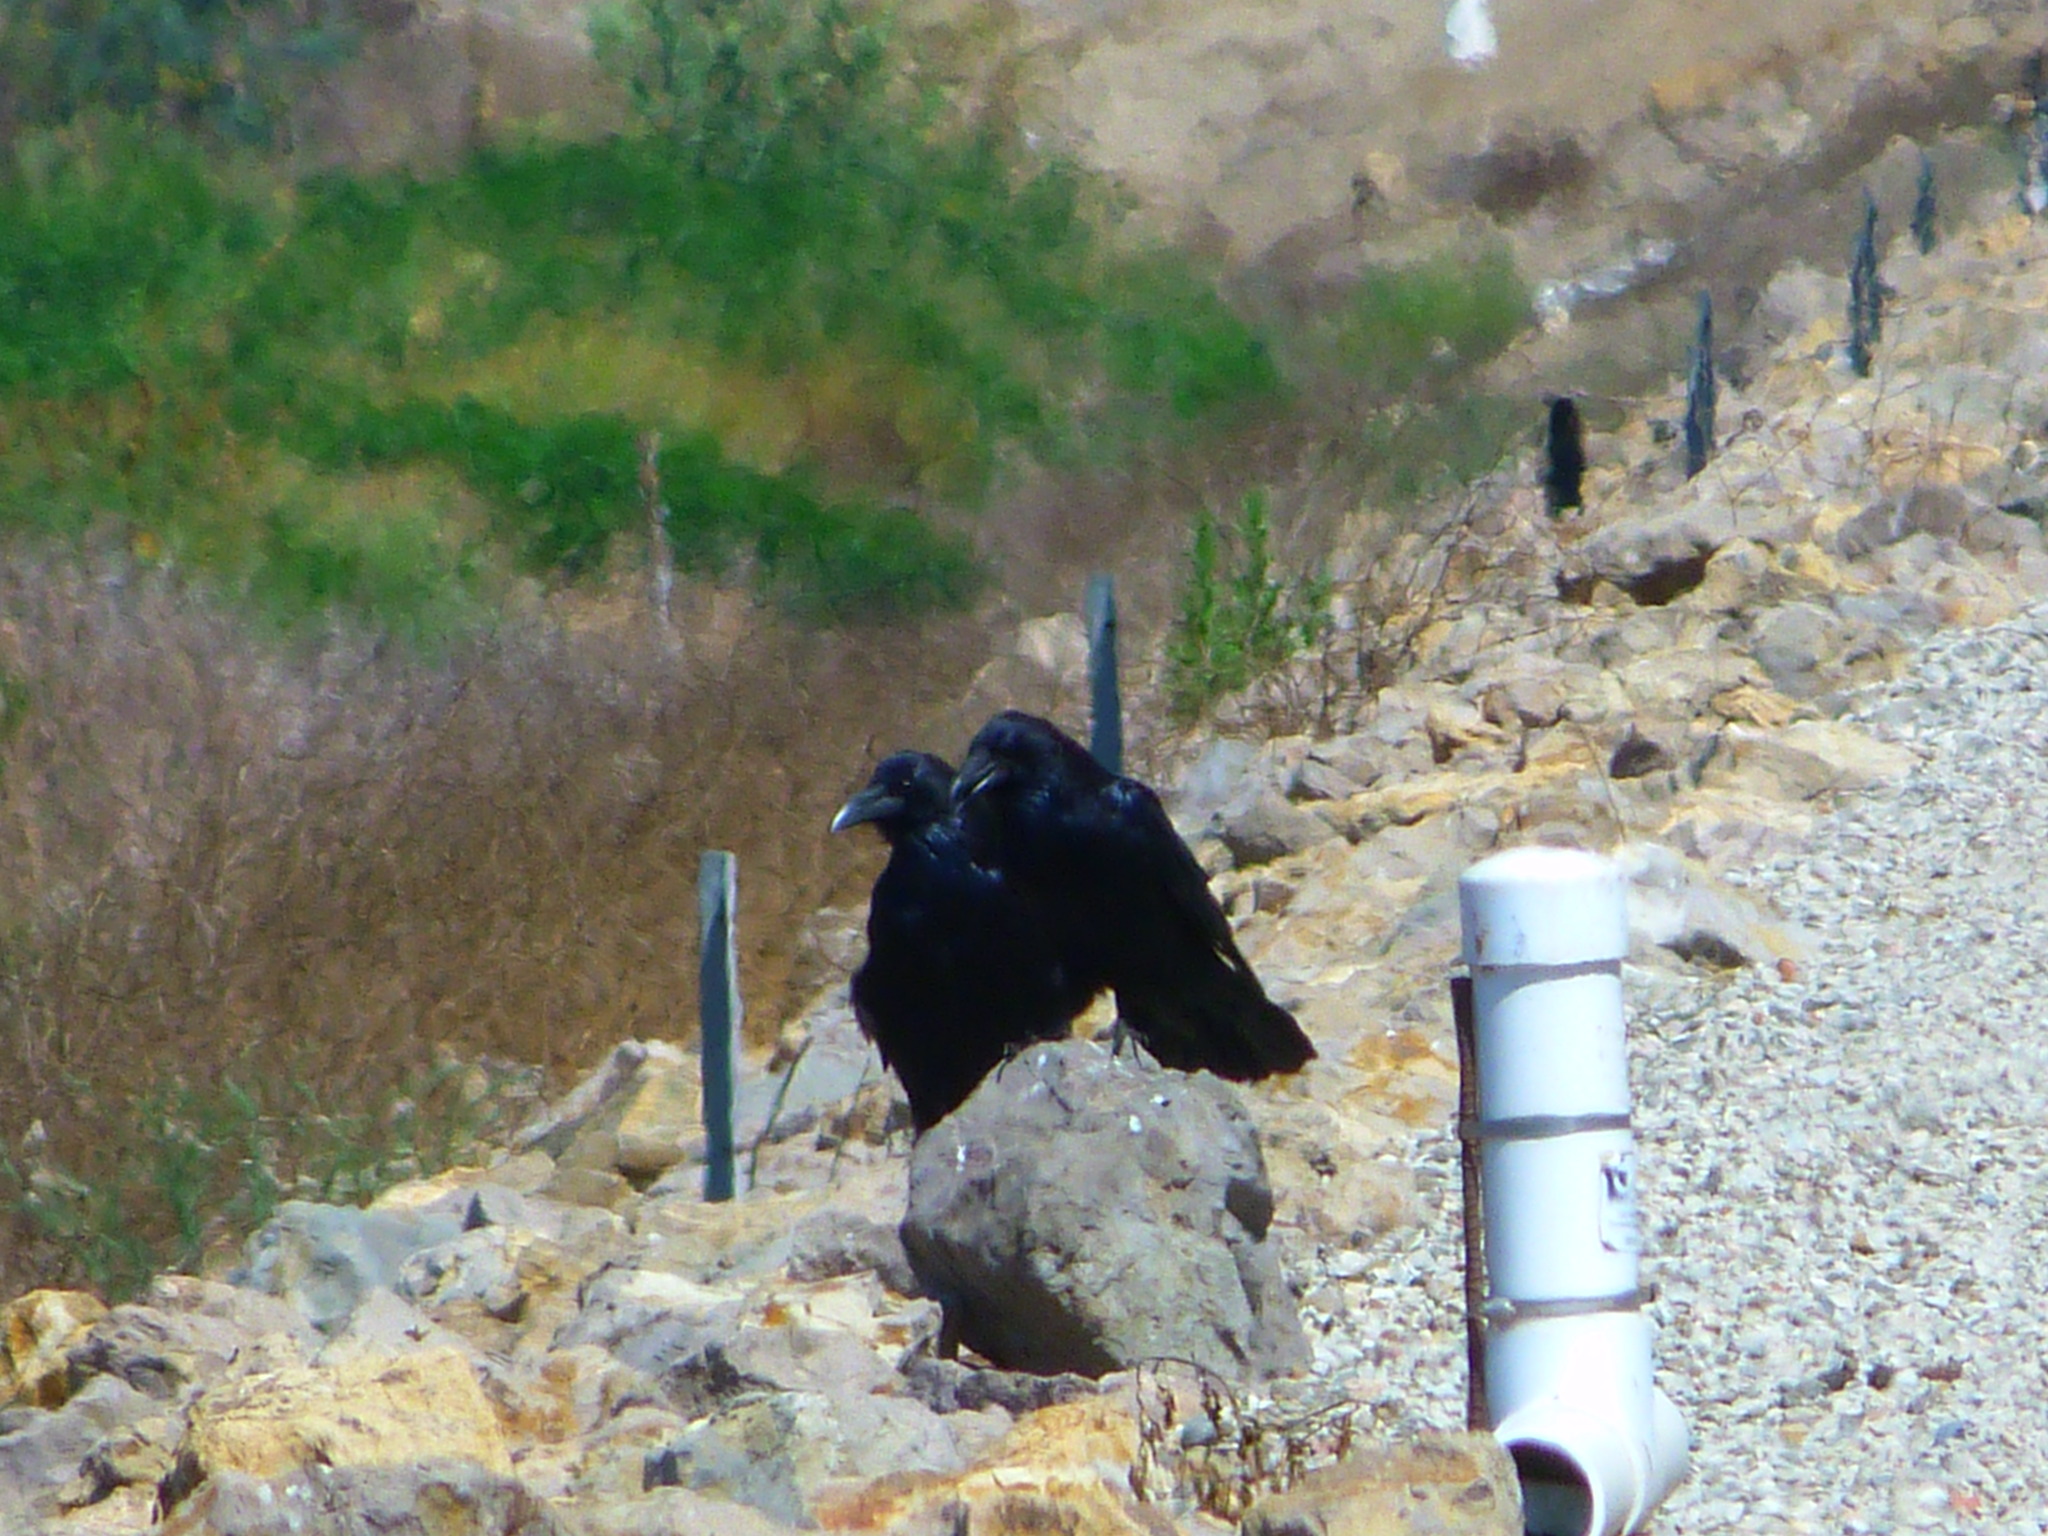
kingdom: Animalia
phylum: Chordata
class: Aves
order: Passeriformes
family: Corvidae
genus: Corvus
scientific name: Corvus corax
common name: Common raven
